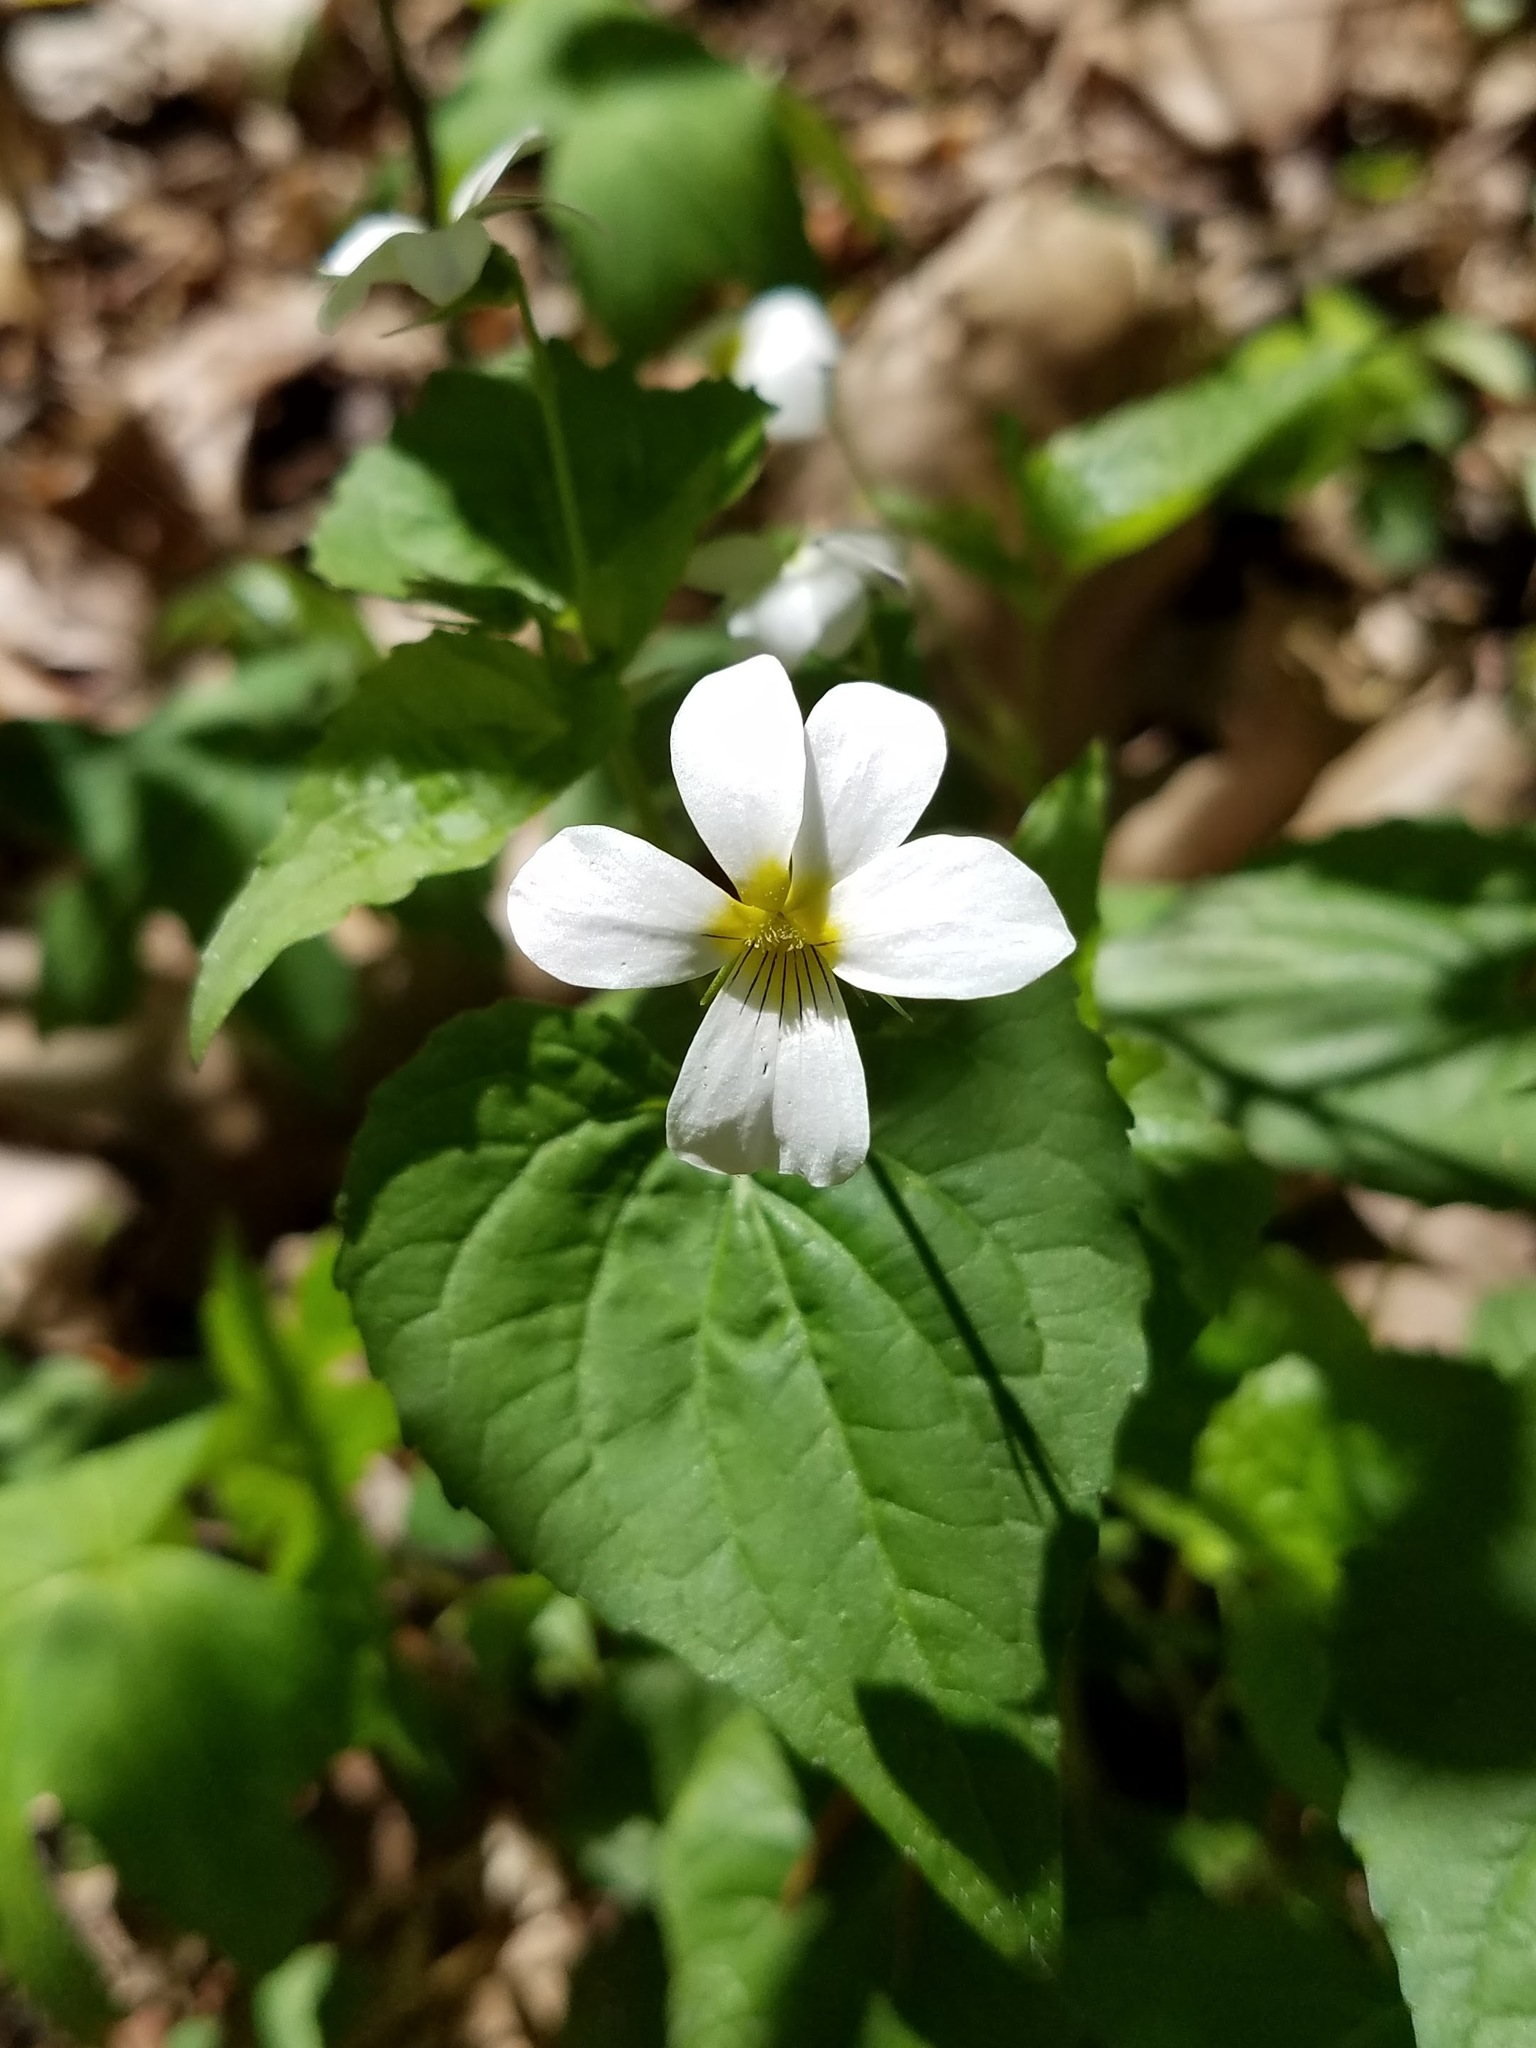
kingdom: Plantae
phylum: Tracheophyta
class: Magnoliopsida
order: Malpighiales
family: Violaceae
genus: Viola
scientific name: Viola canadensis
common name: Canada violet
